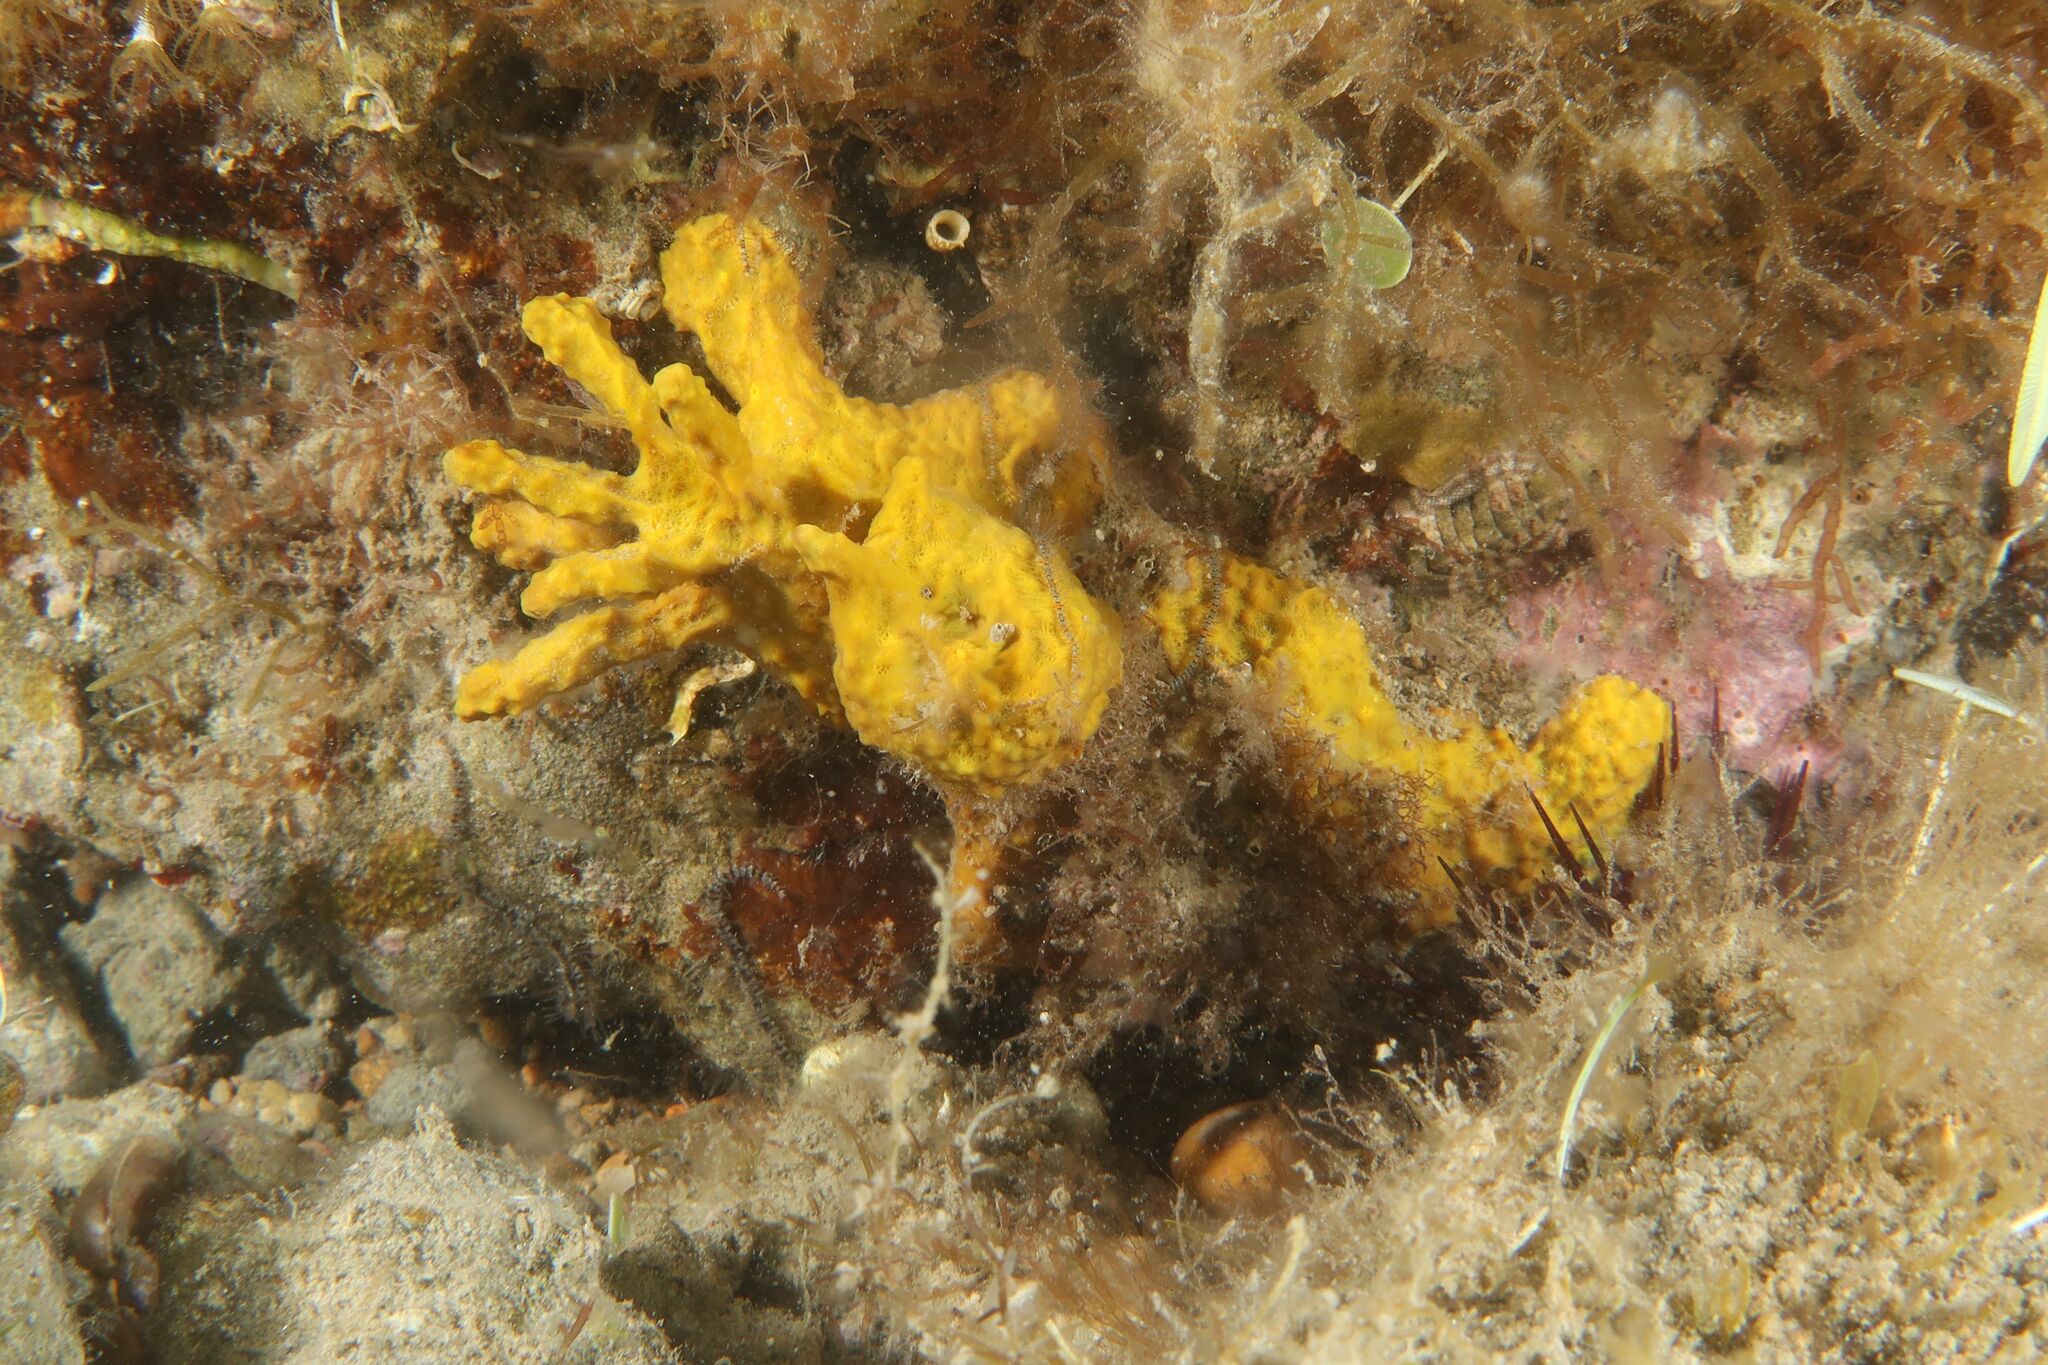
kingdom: Animalia
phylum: Porifera
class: Demospongiae
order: Verongiida
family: Aplysinidae
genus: Aplysina
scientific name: Aplysina aerophoba
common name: Aureate sponge
